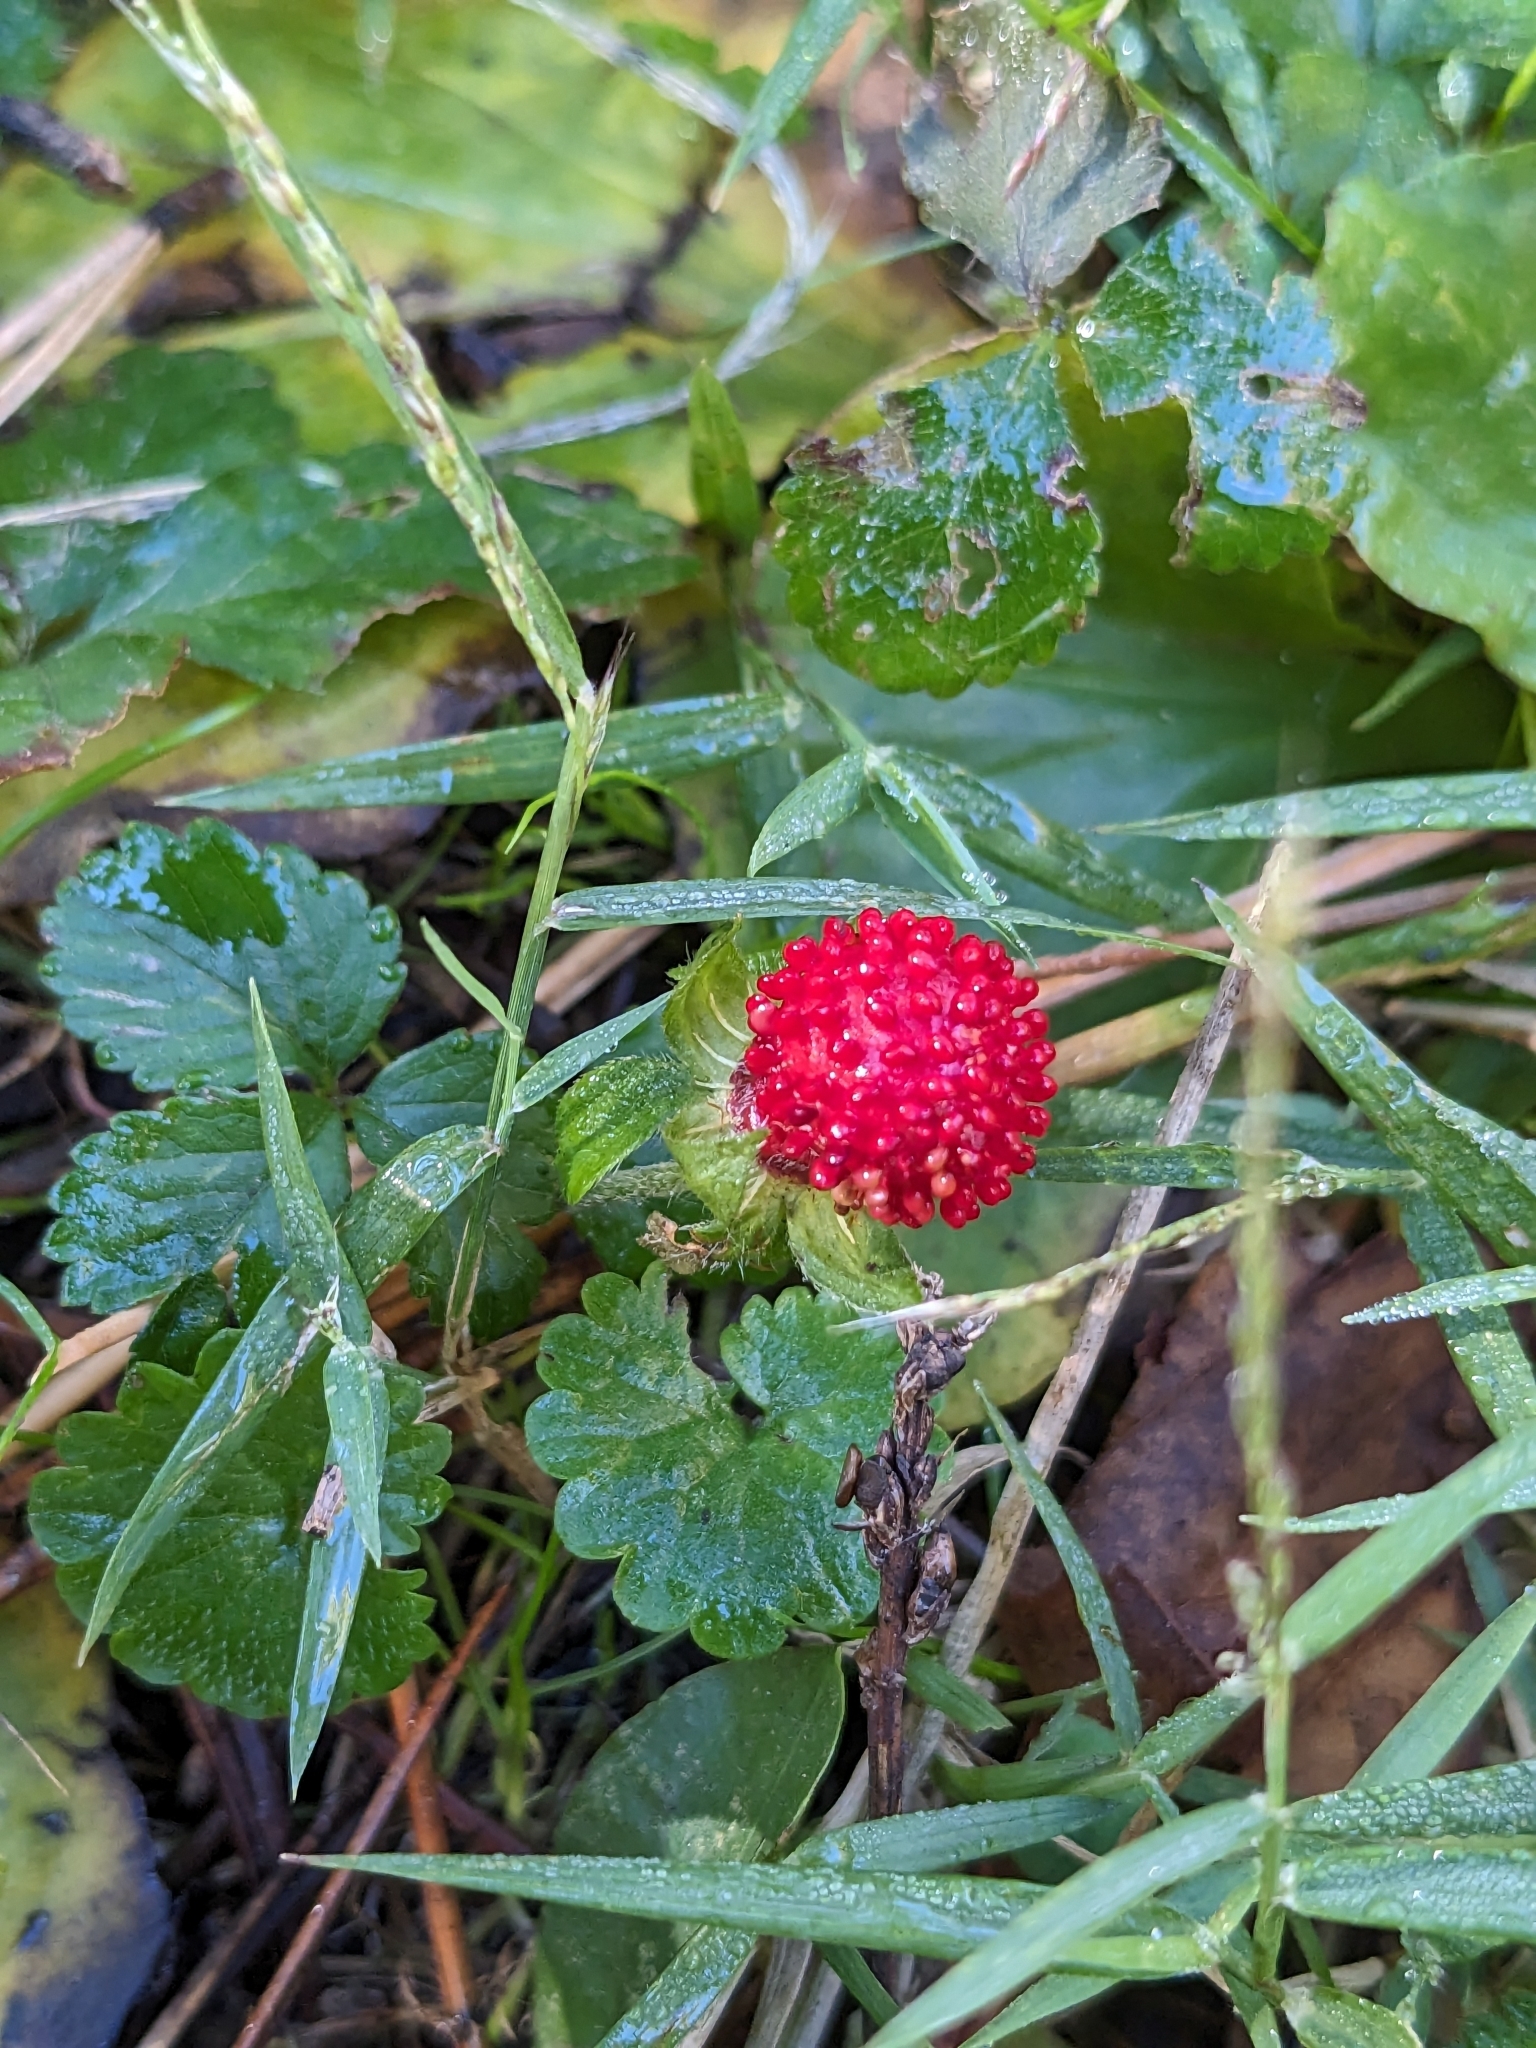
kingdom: Plantae
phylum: Tracheophyta
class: Magnoliopsida
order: Rosales
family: Rosaceae
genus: Potentilla
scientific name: Potentilla indica
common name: Yellow-flowered strawberry
